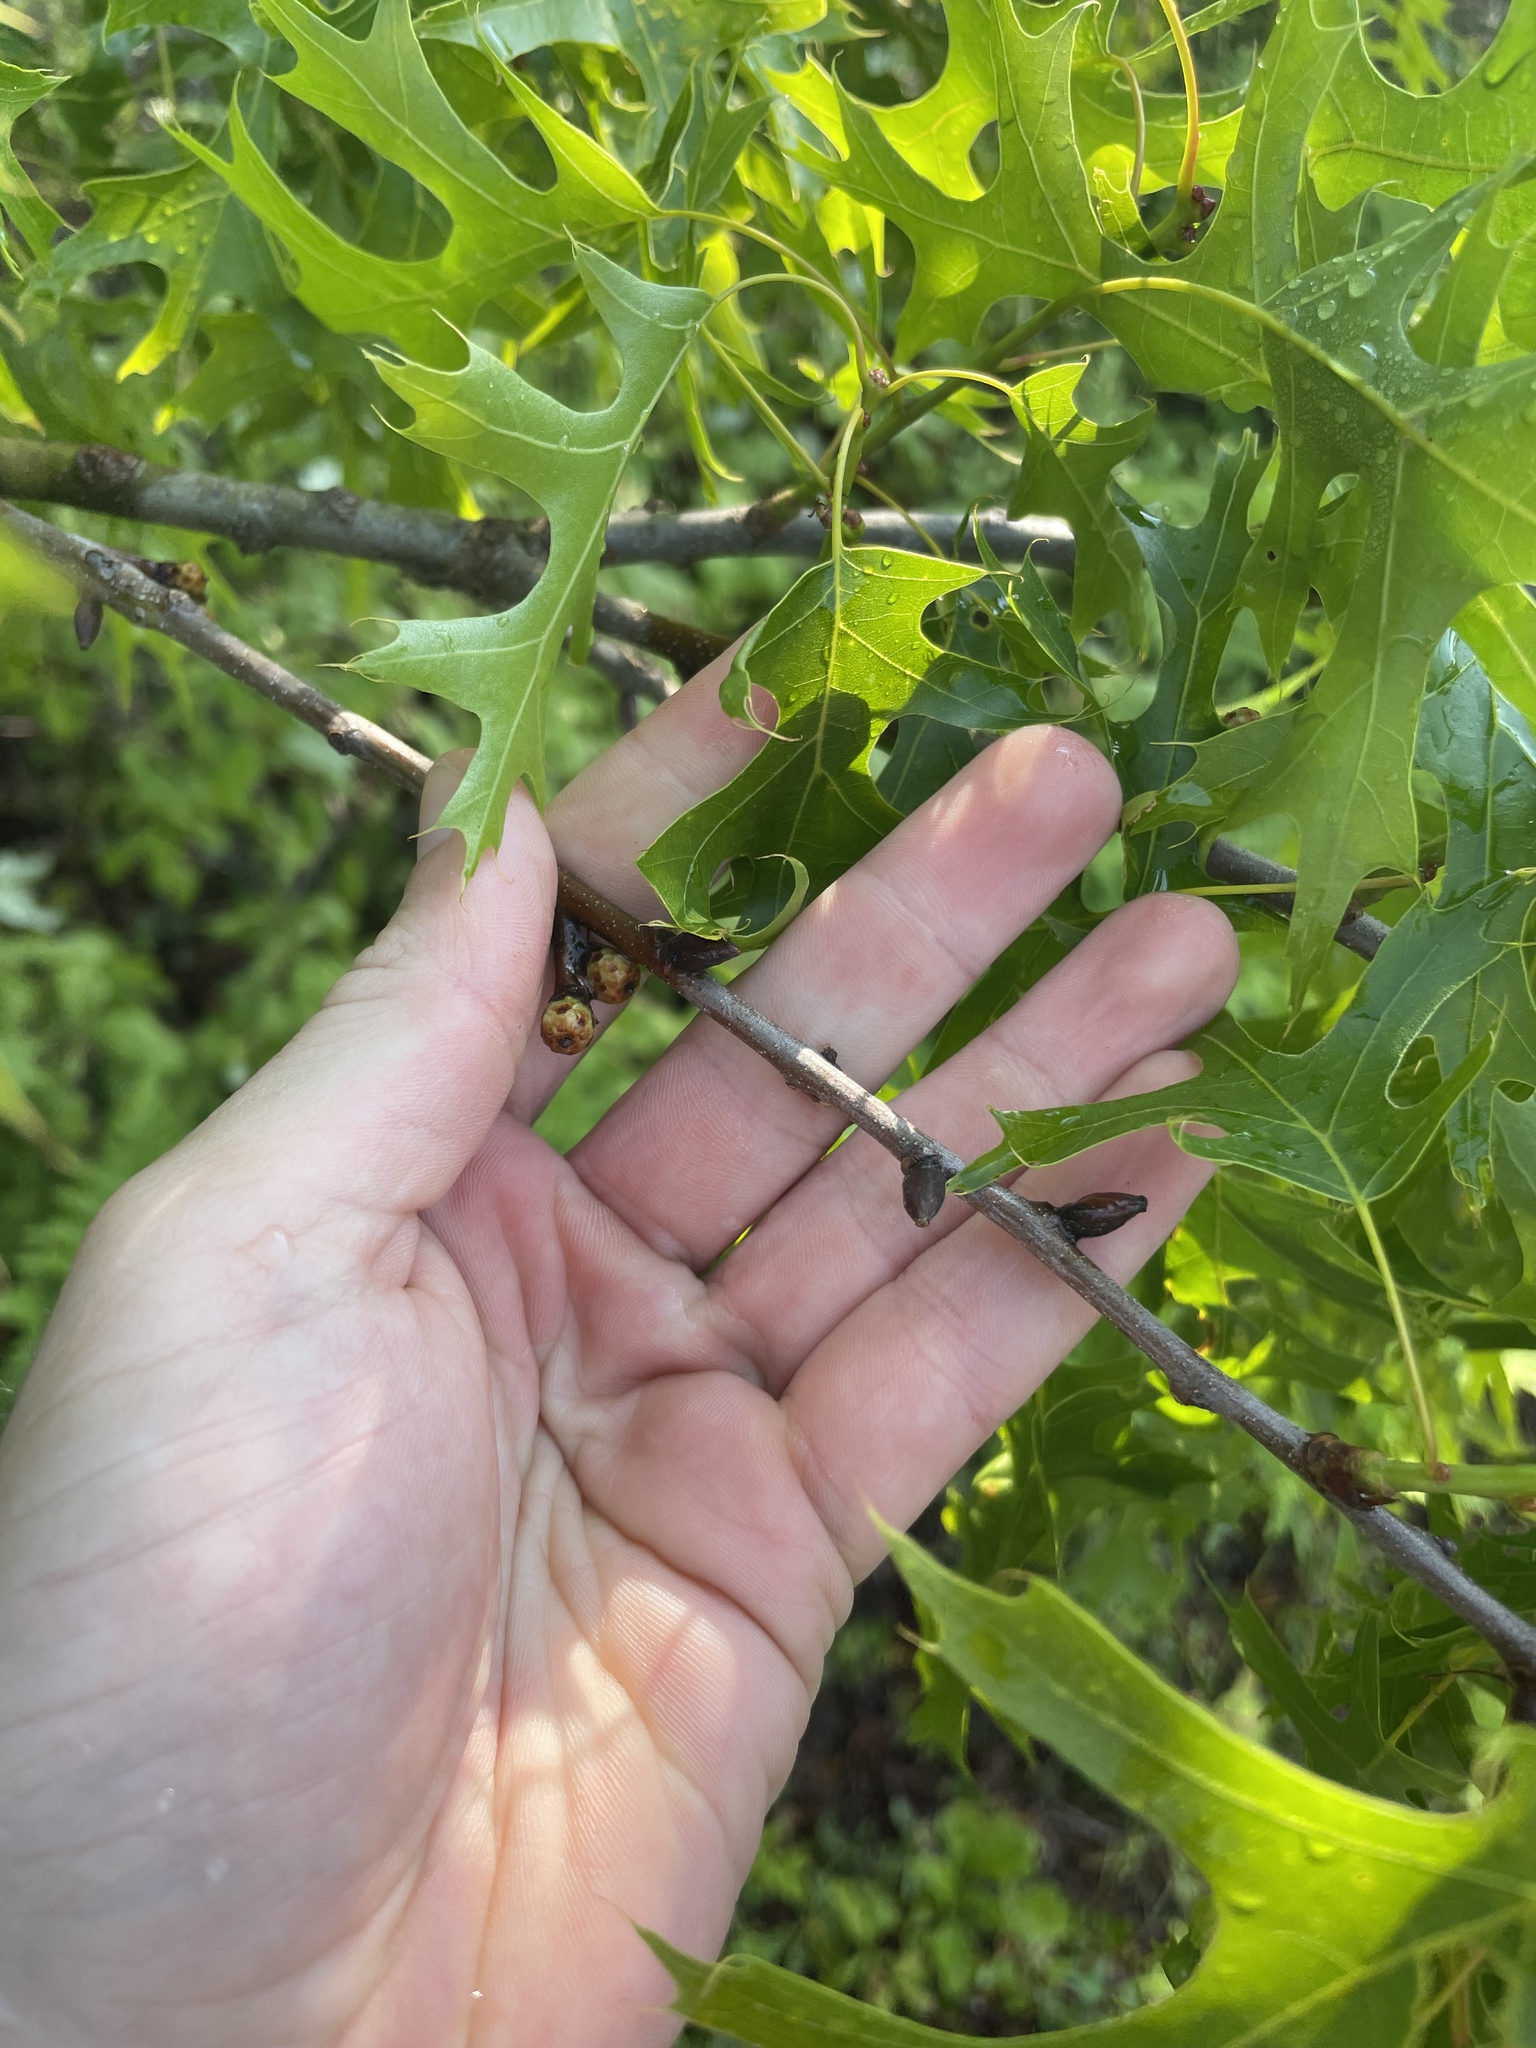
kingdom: Plantae
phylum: Tracheophyta
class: Magnoliopsida
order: Fagales
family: Fagaceae
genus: Quercus
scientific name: Quercus palustris
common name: Pin oak
